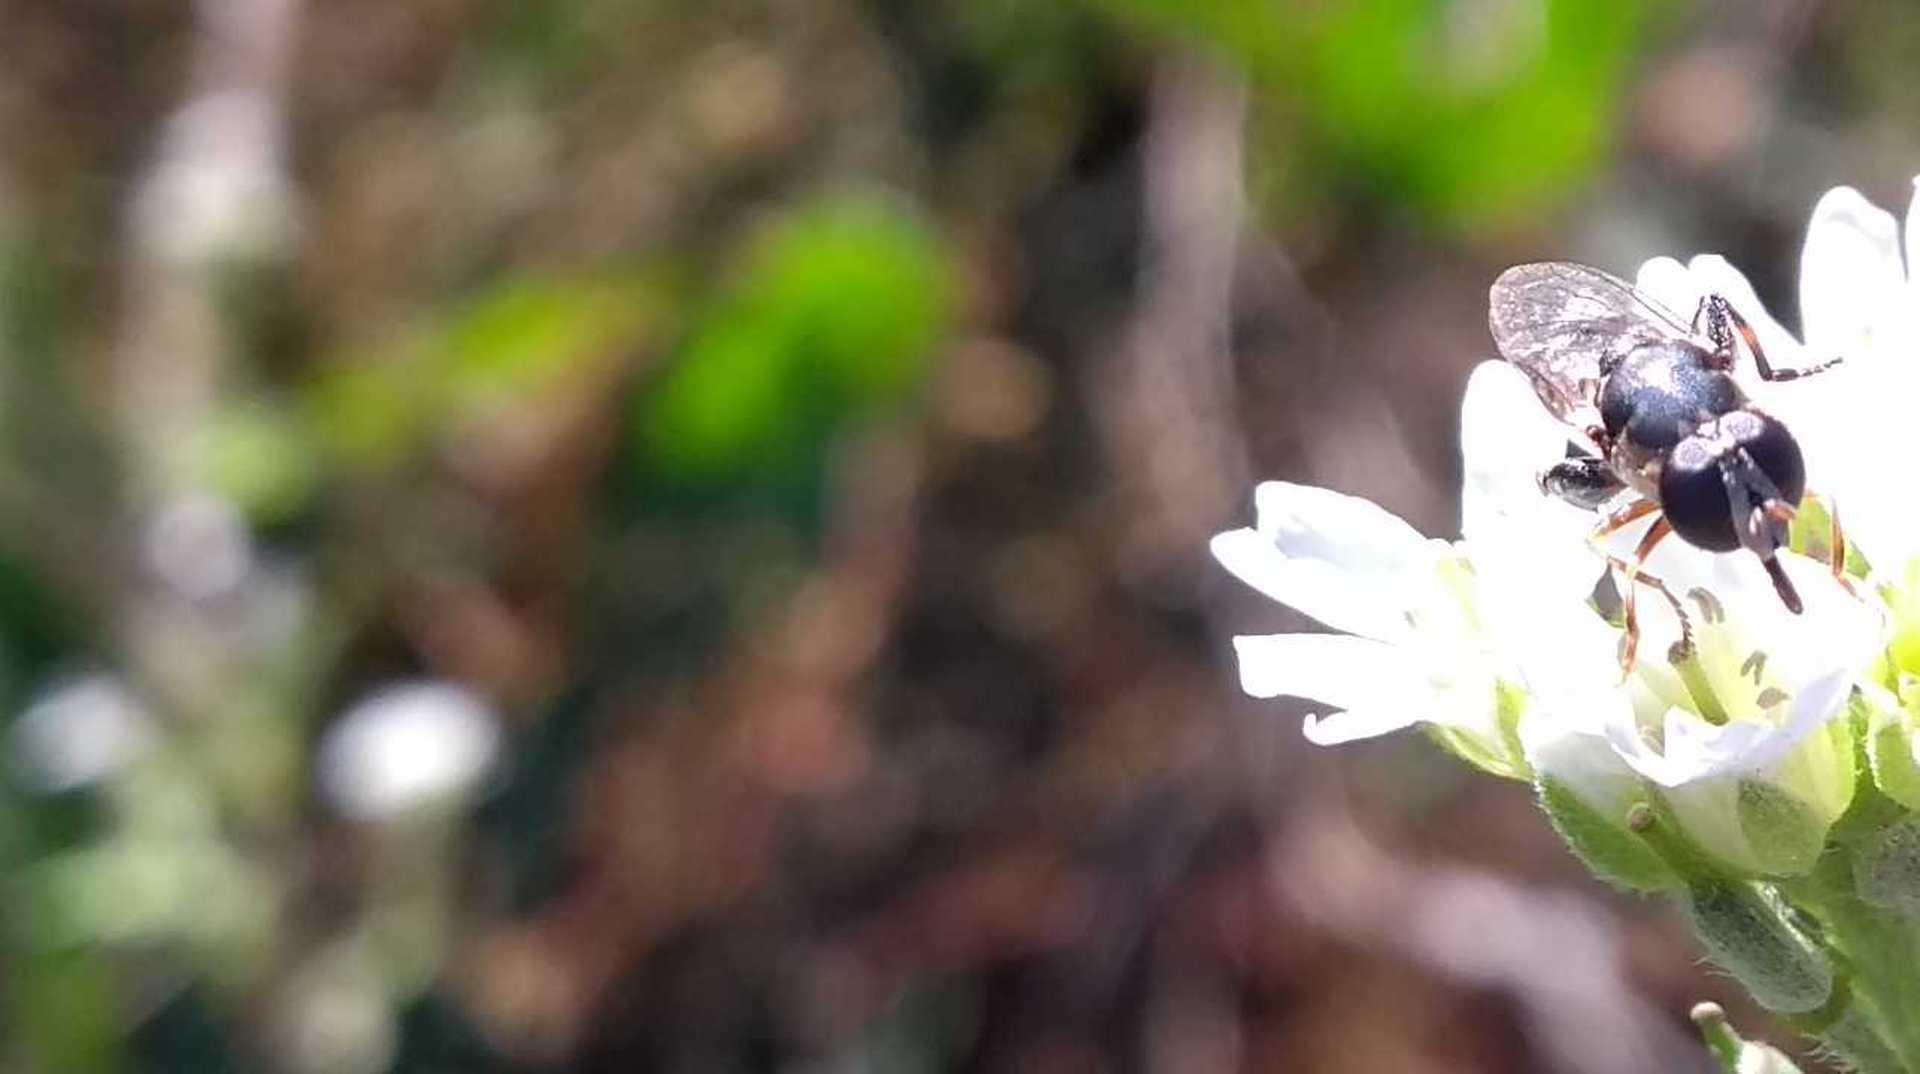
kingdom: Animalia
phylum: Arthropoda
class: Insecta
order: Diptera
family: Syrphidae
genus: Syritta
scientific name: Syritta pipiens
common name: Hover fly
